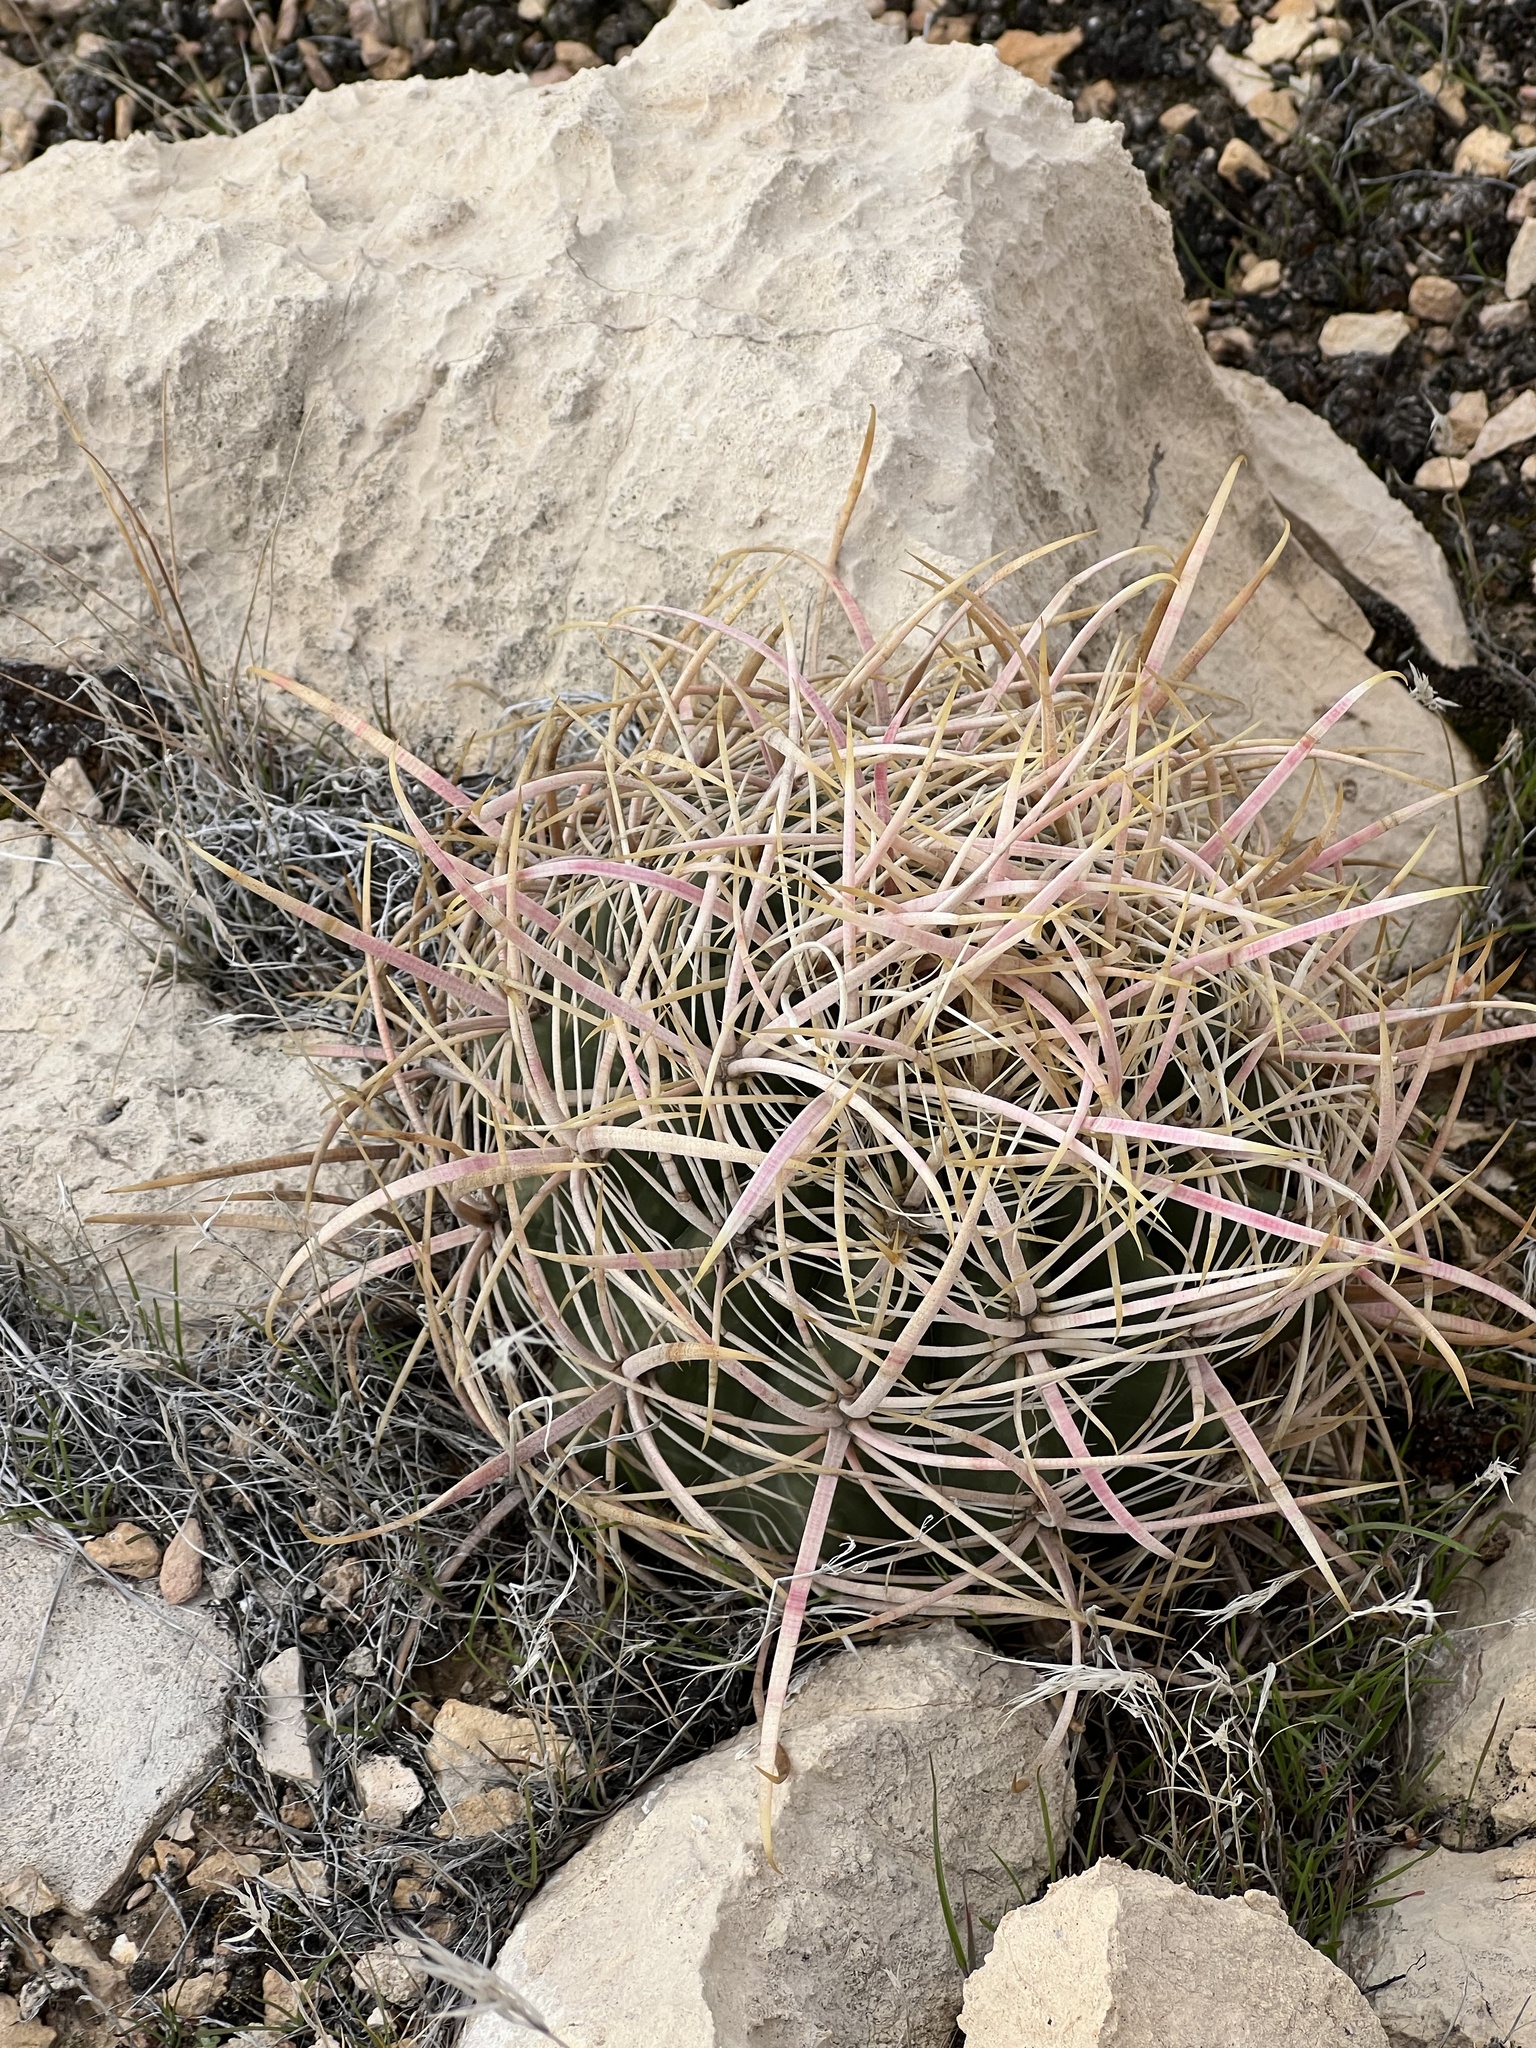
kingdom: Plantae
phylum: Tracheophyta
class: Magnoliopsida
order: Caryophyllales
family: Cactaceae
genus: Ferocactus
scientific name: Ferocactus cylindraceus
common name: California barrel cactus
